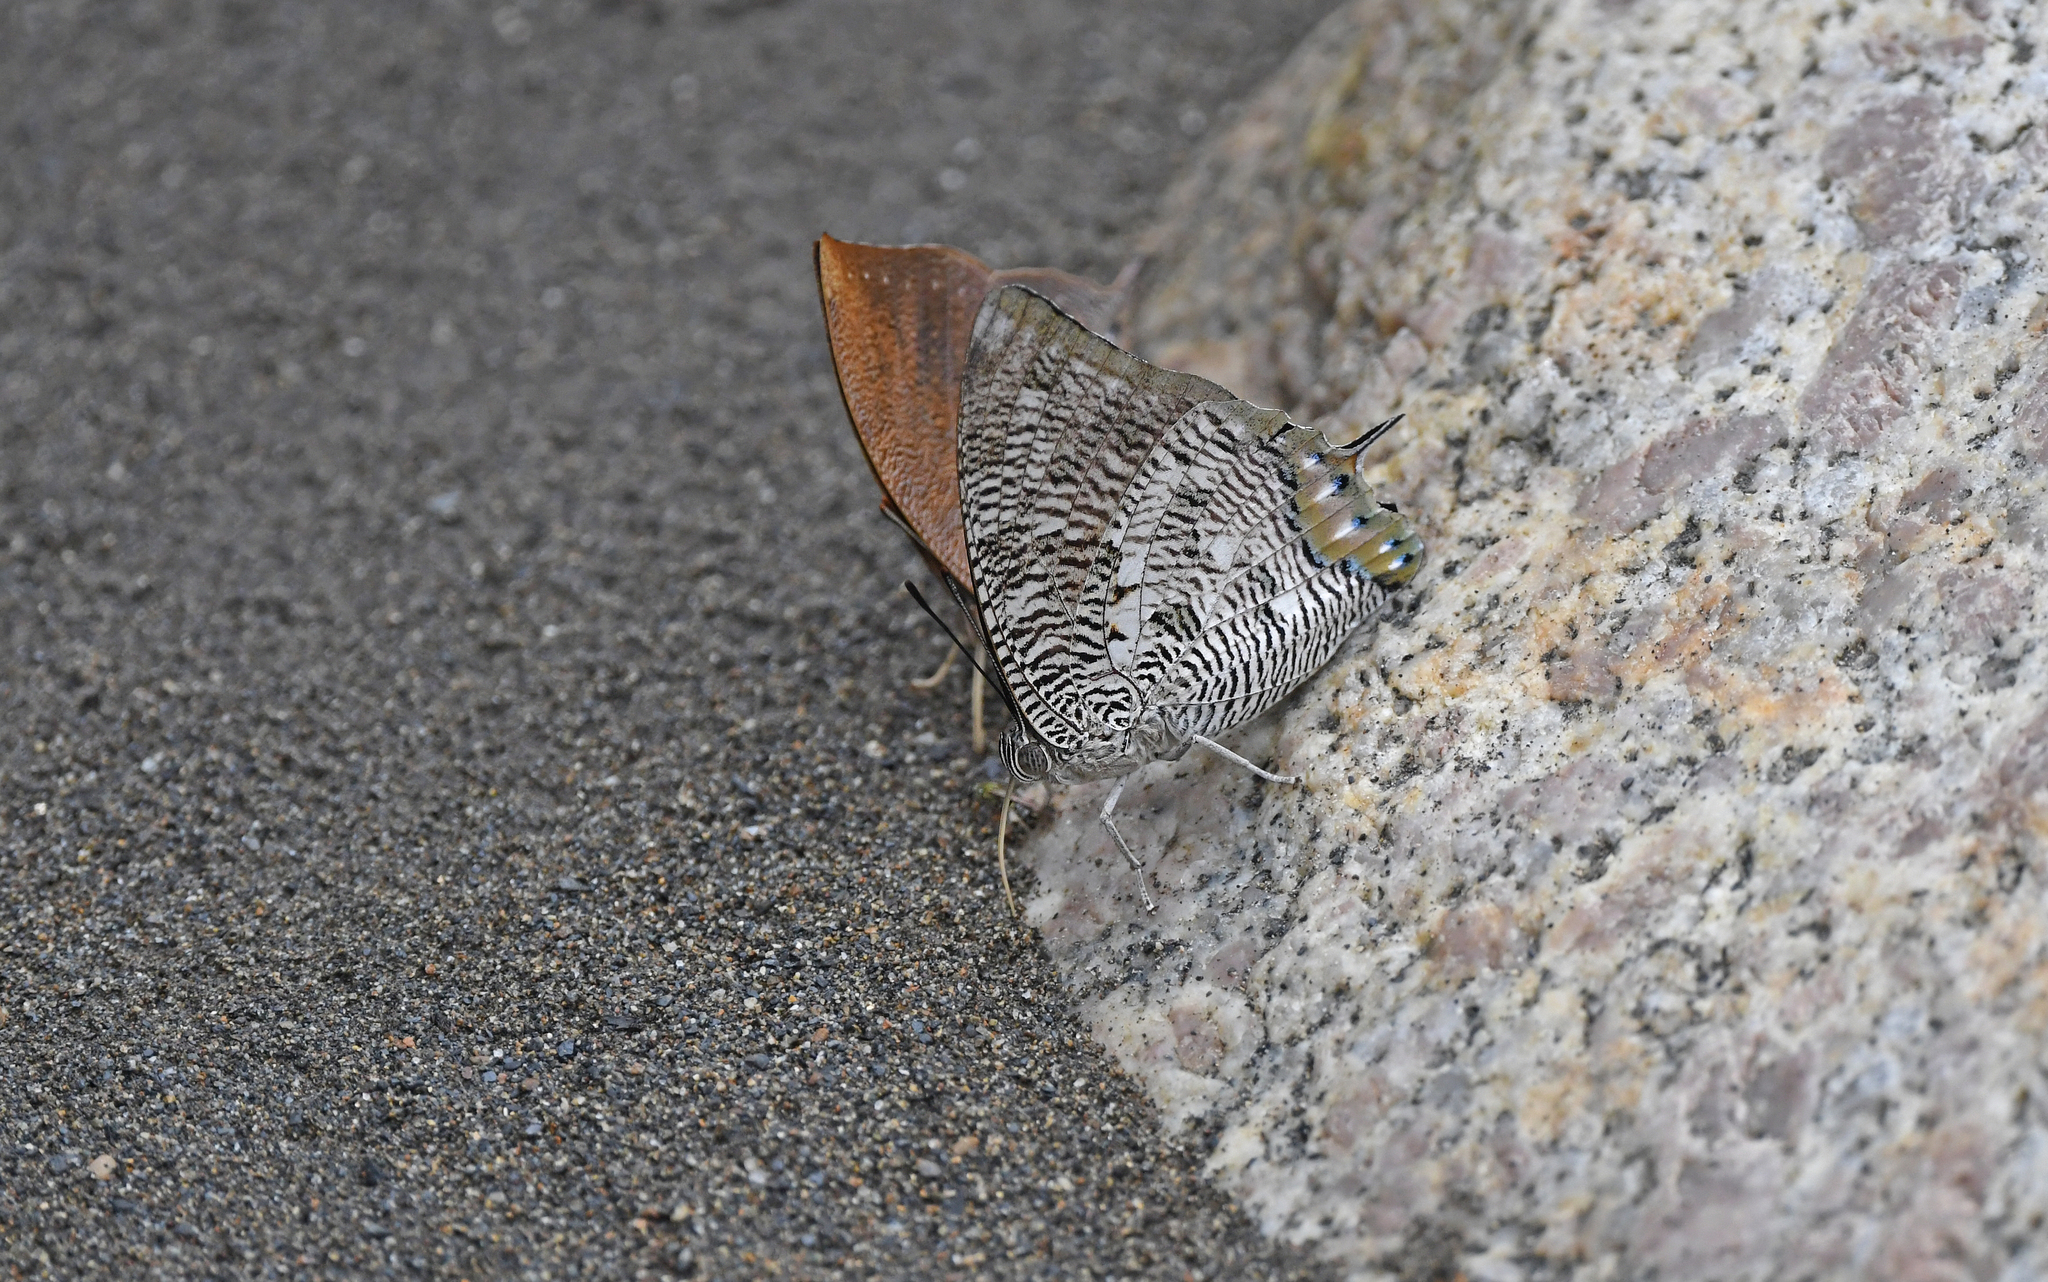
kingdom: Animalia
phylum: Arthropoda
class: Insecta
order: Lepidoptera
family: Nymphalidae
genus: Polygrapha
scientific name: Polygrapha cyanea
